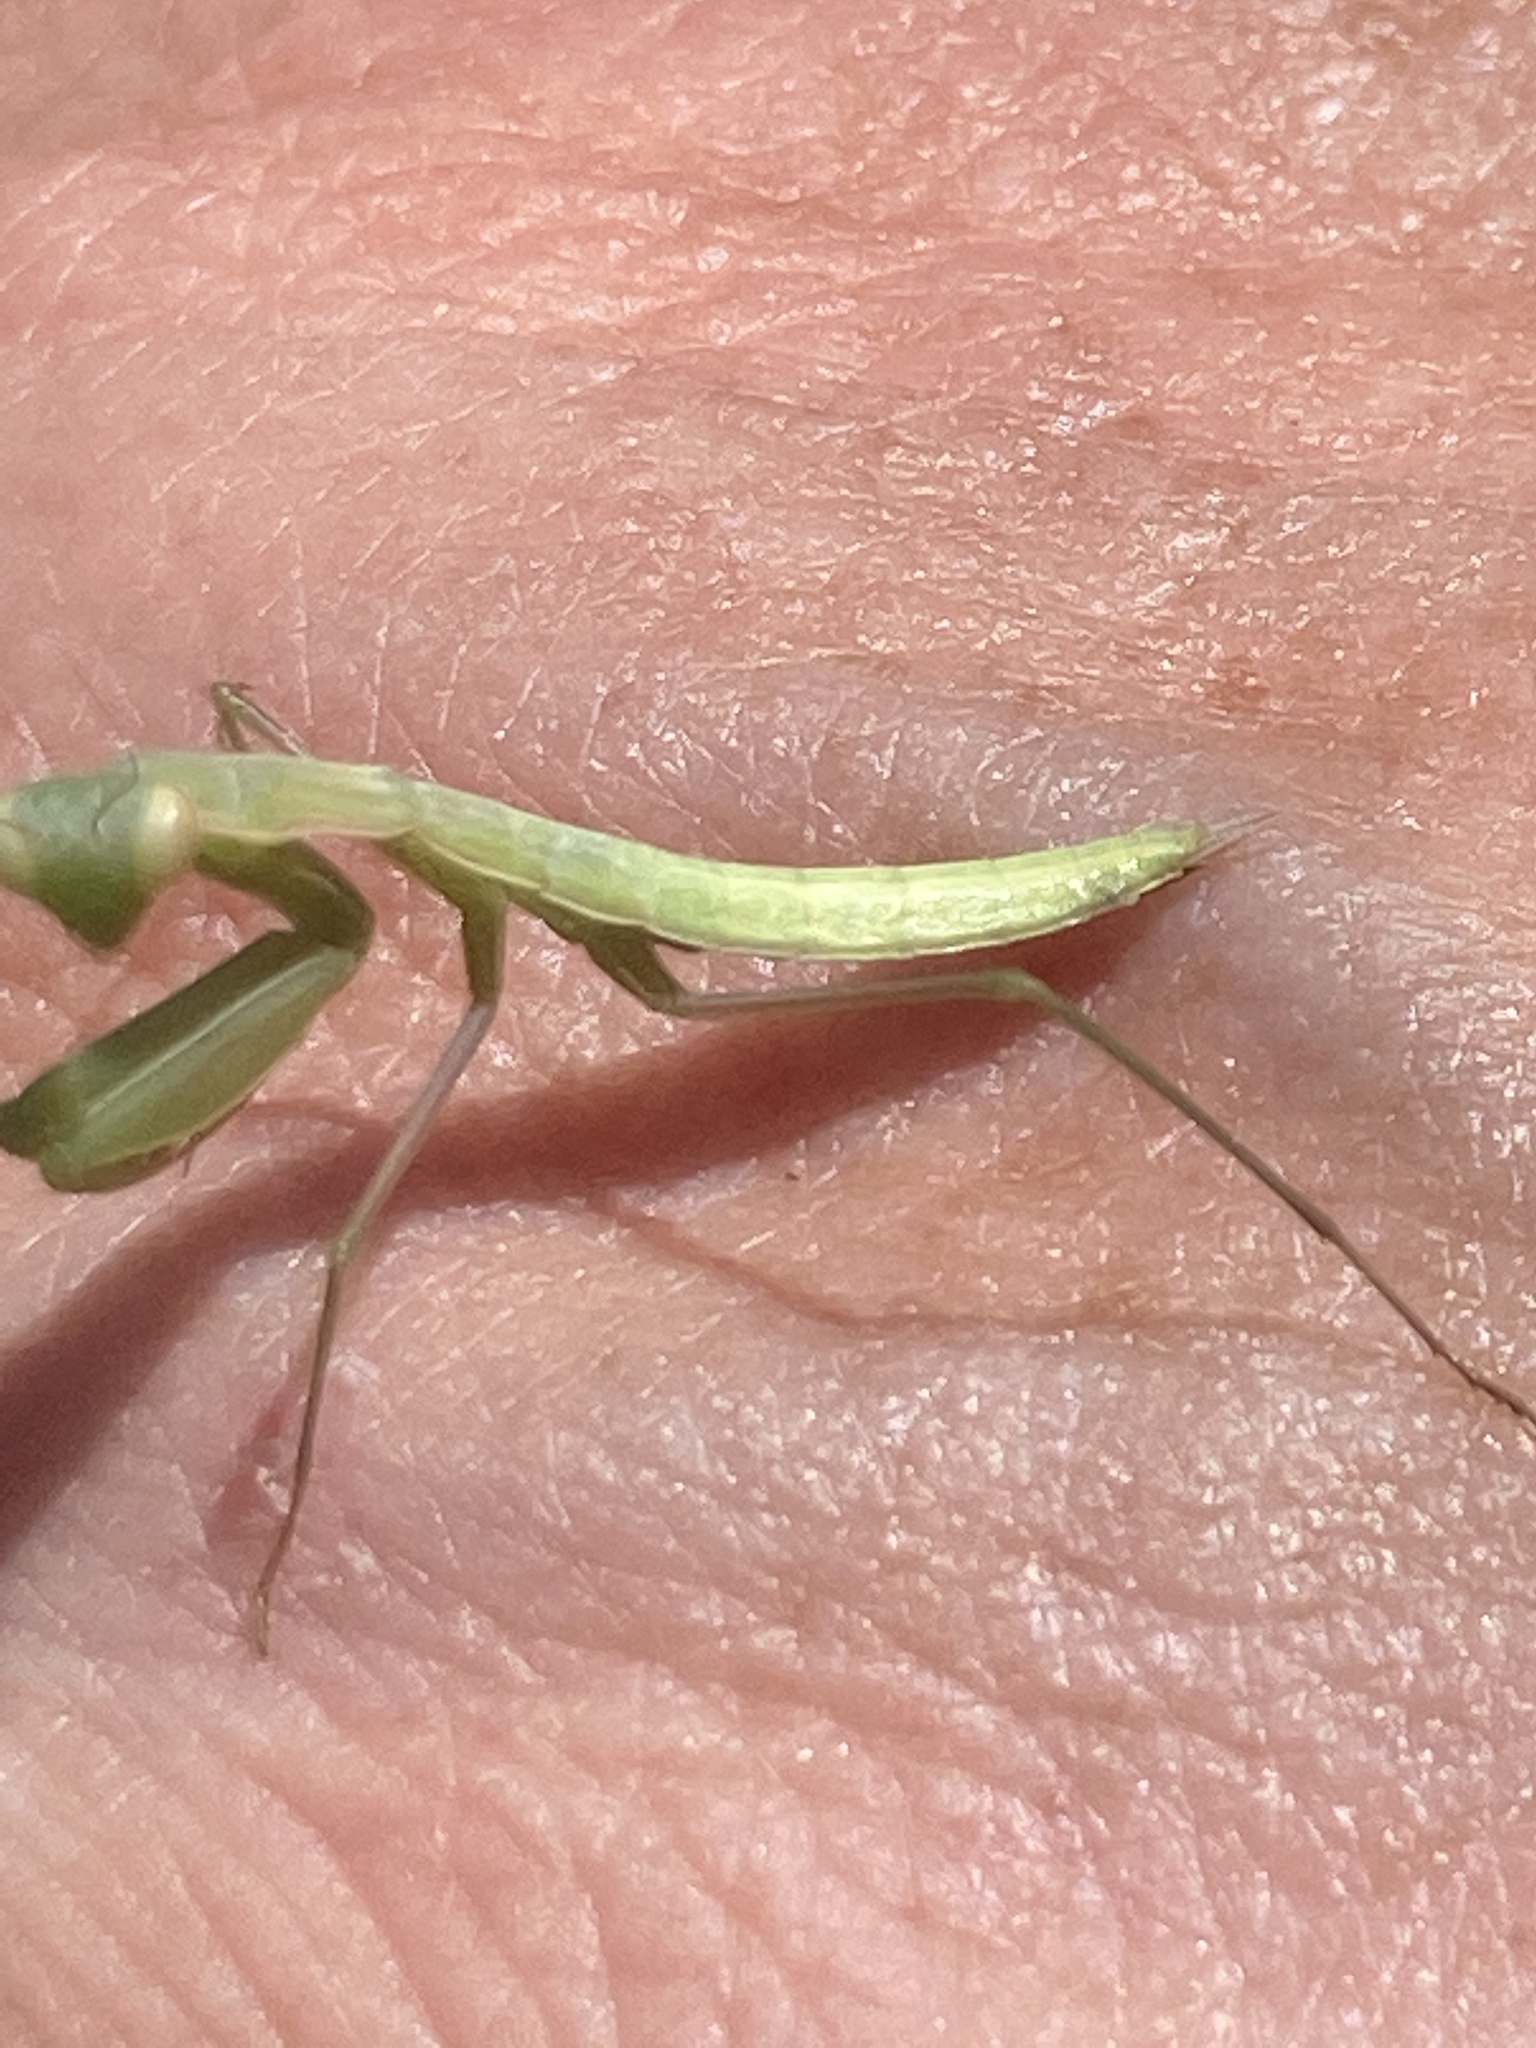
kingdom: Animalia
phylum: Arthropoda
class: Insecta
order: Mantodea
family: Mantidae
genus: Mantis
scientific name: Mantis religiosa
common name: Praying mantis
